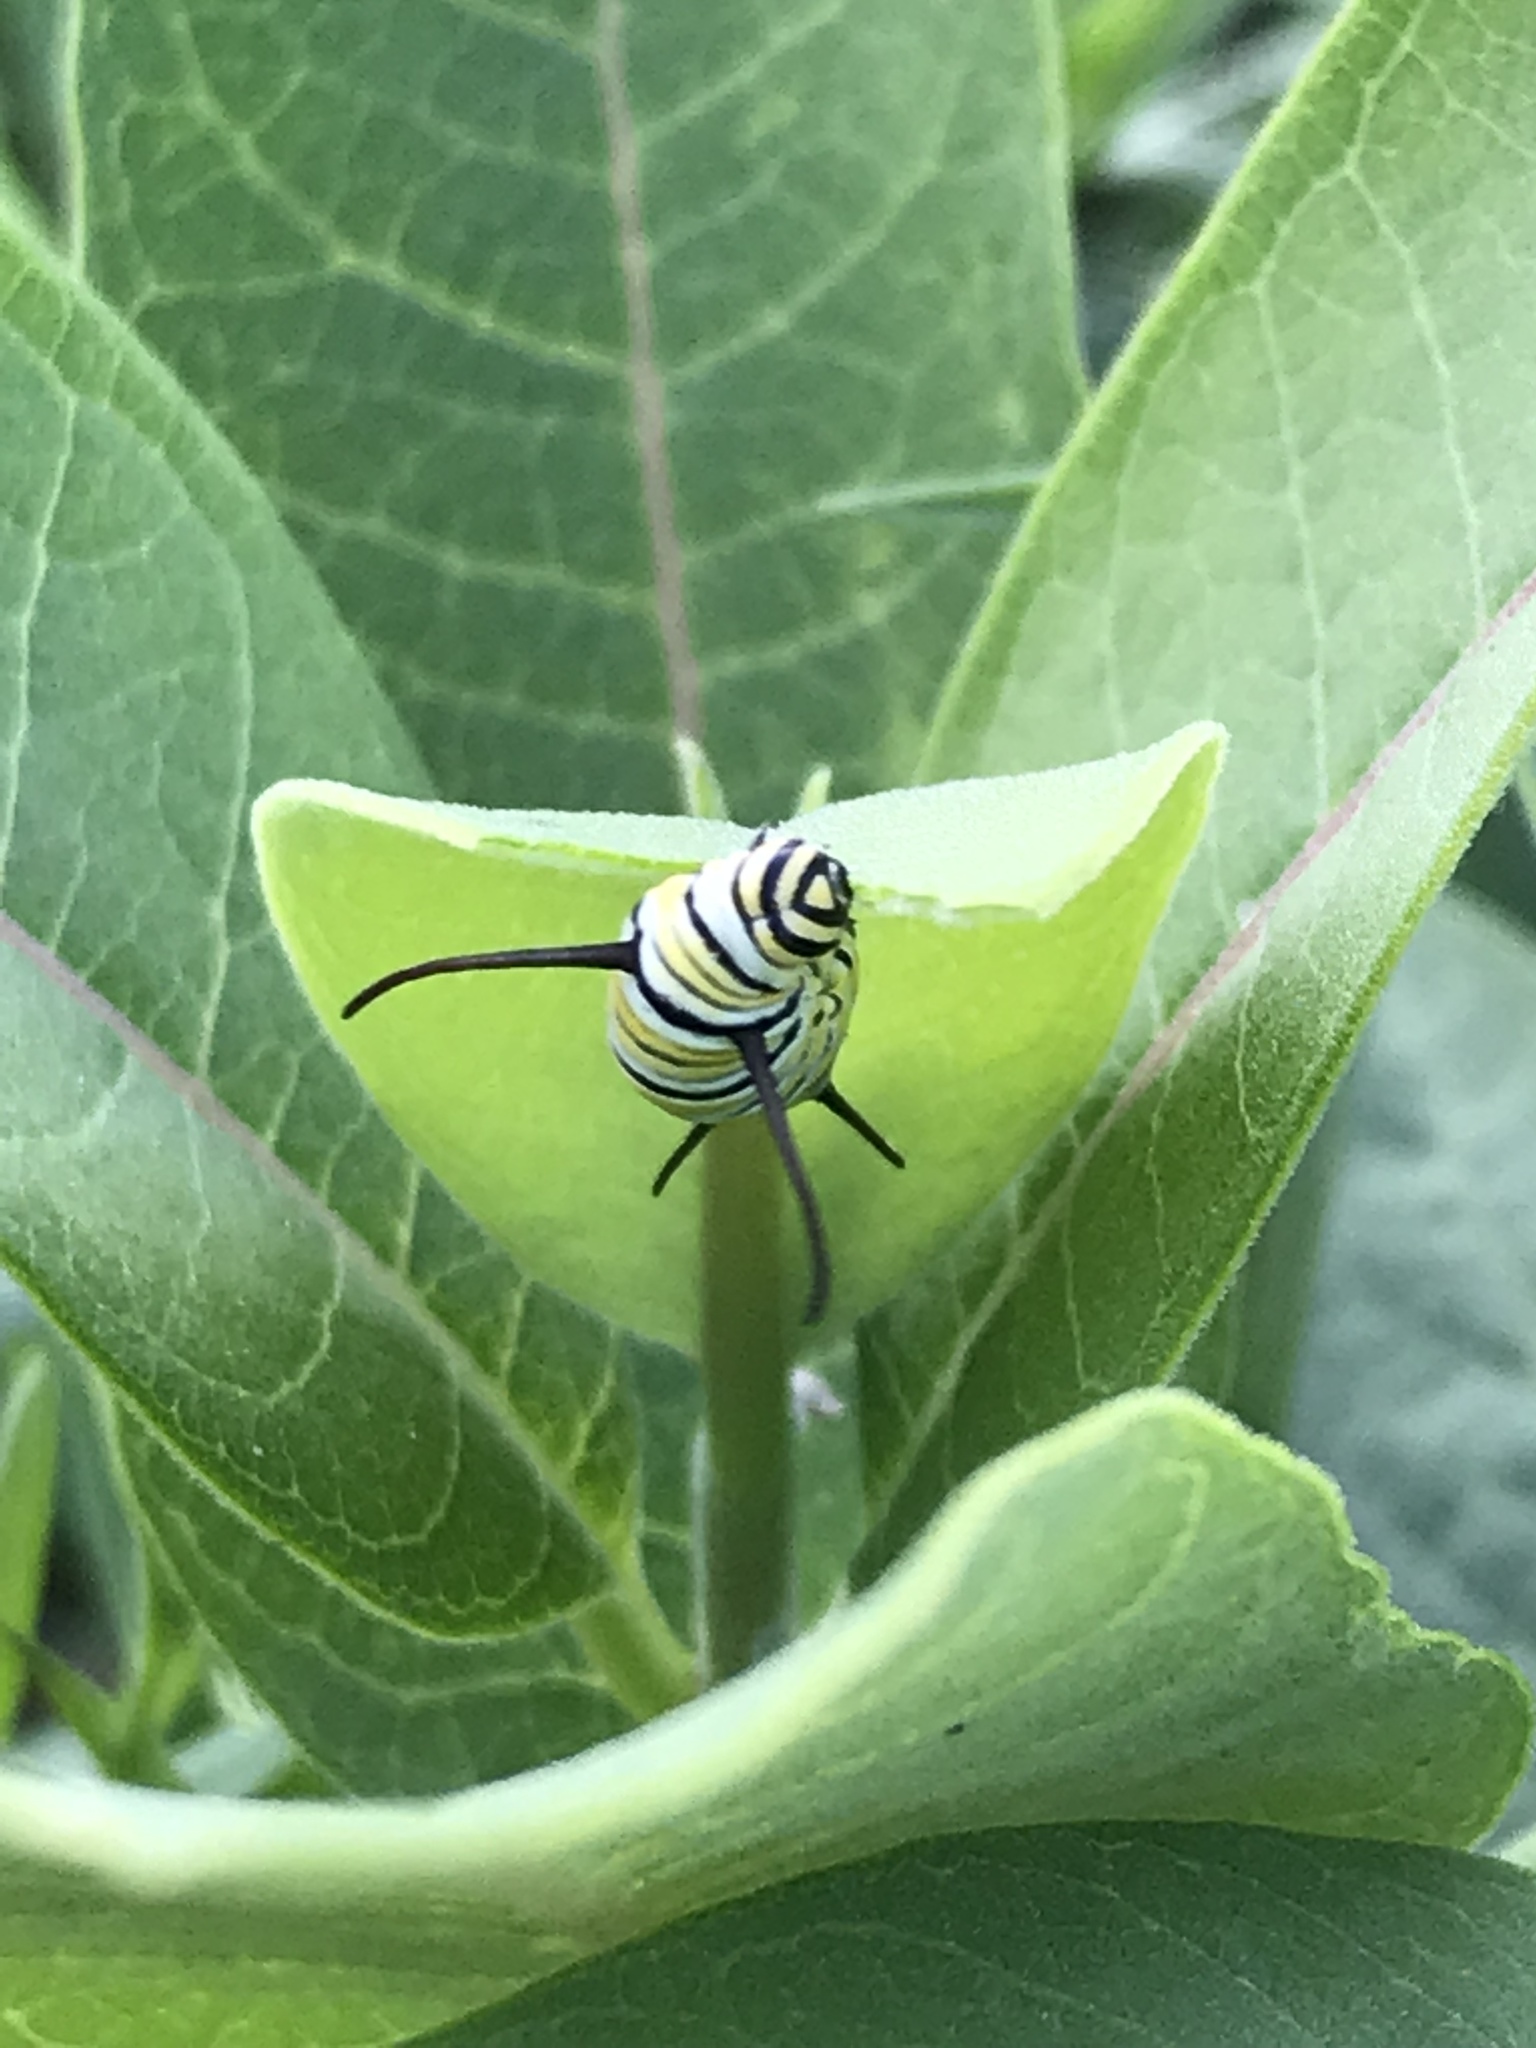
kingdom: Animalia
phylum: Arthropoda
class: Insecta
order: Lepidoptera
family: Nymphalidae
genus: Danaus
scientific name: Danaus plexippus
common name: Monarch
